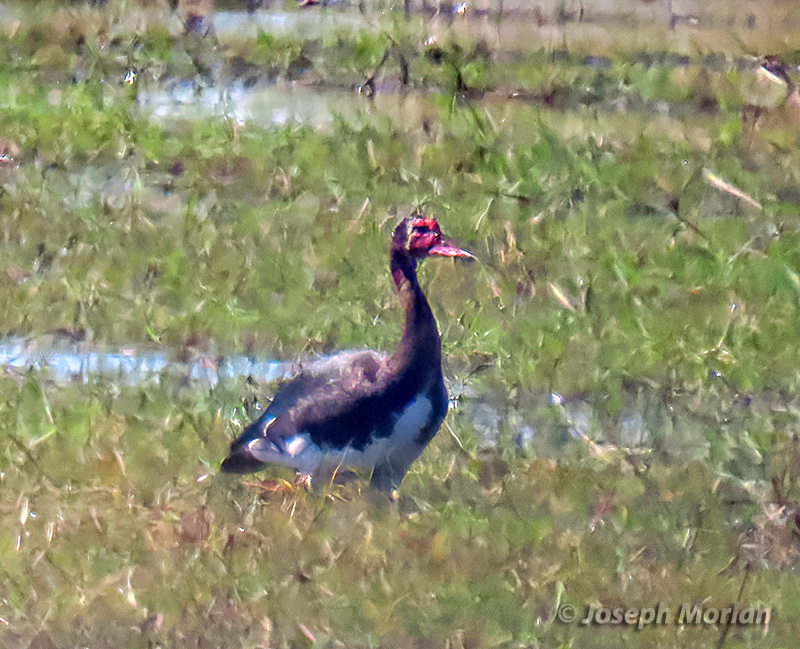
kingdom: Animalia
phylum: Chordata
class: Aves
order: Anseriformes
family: Anatidae
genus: Plectropterus
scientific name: Plectropterus gambensis
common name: Spur-winged goose
